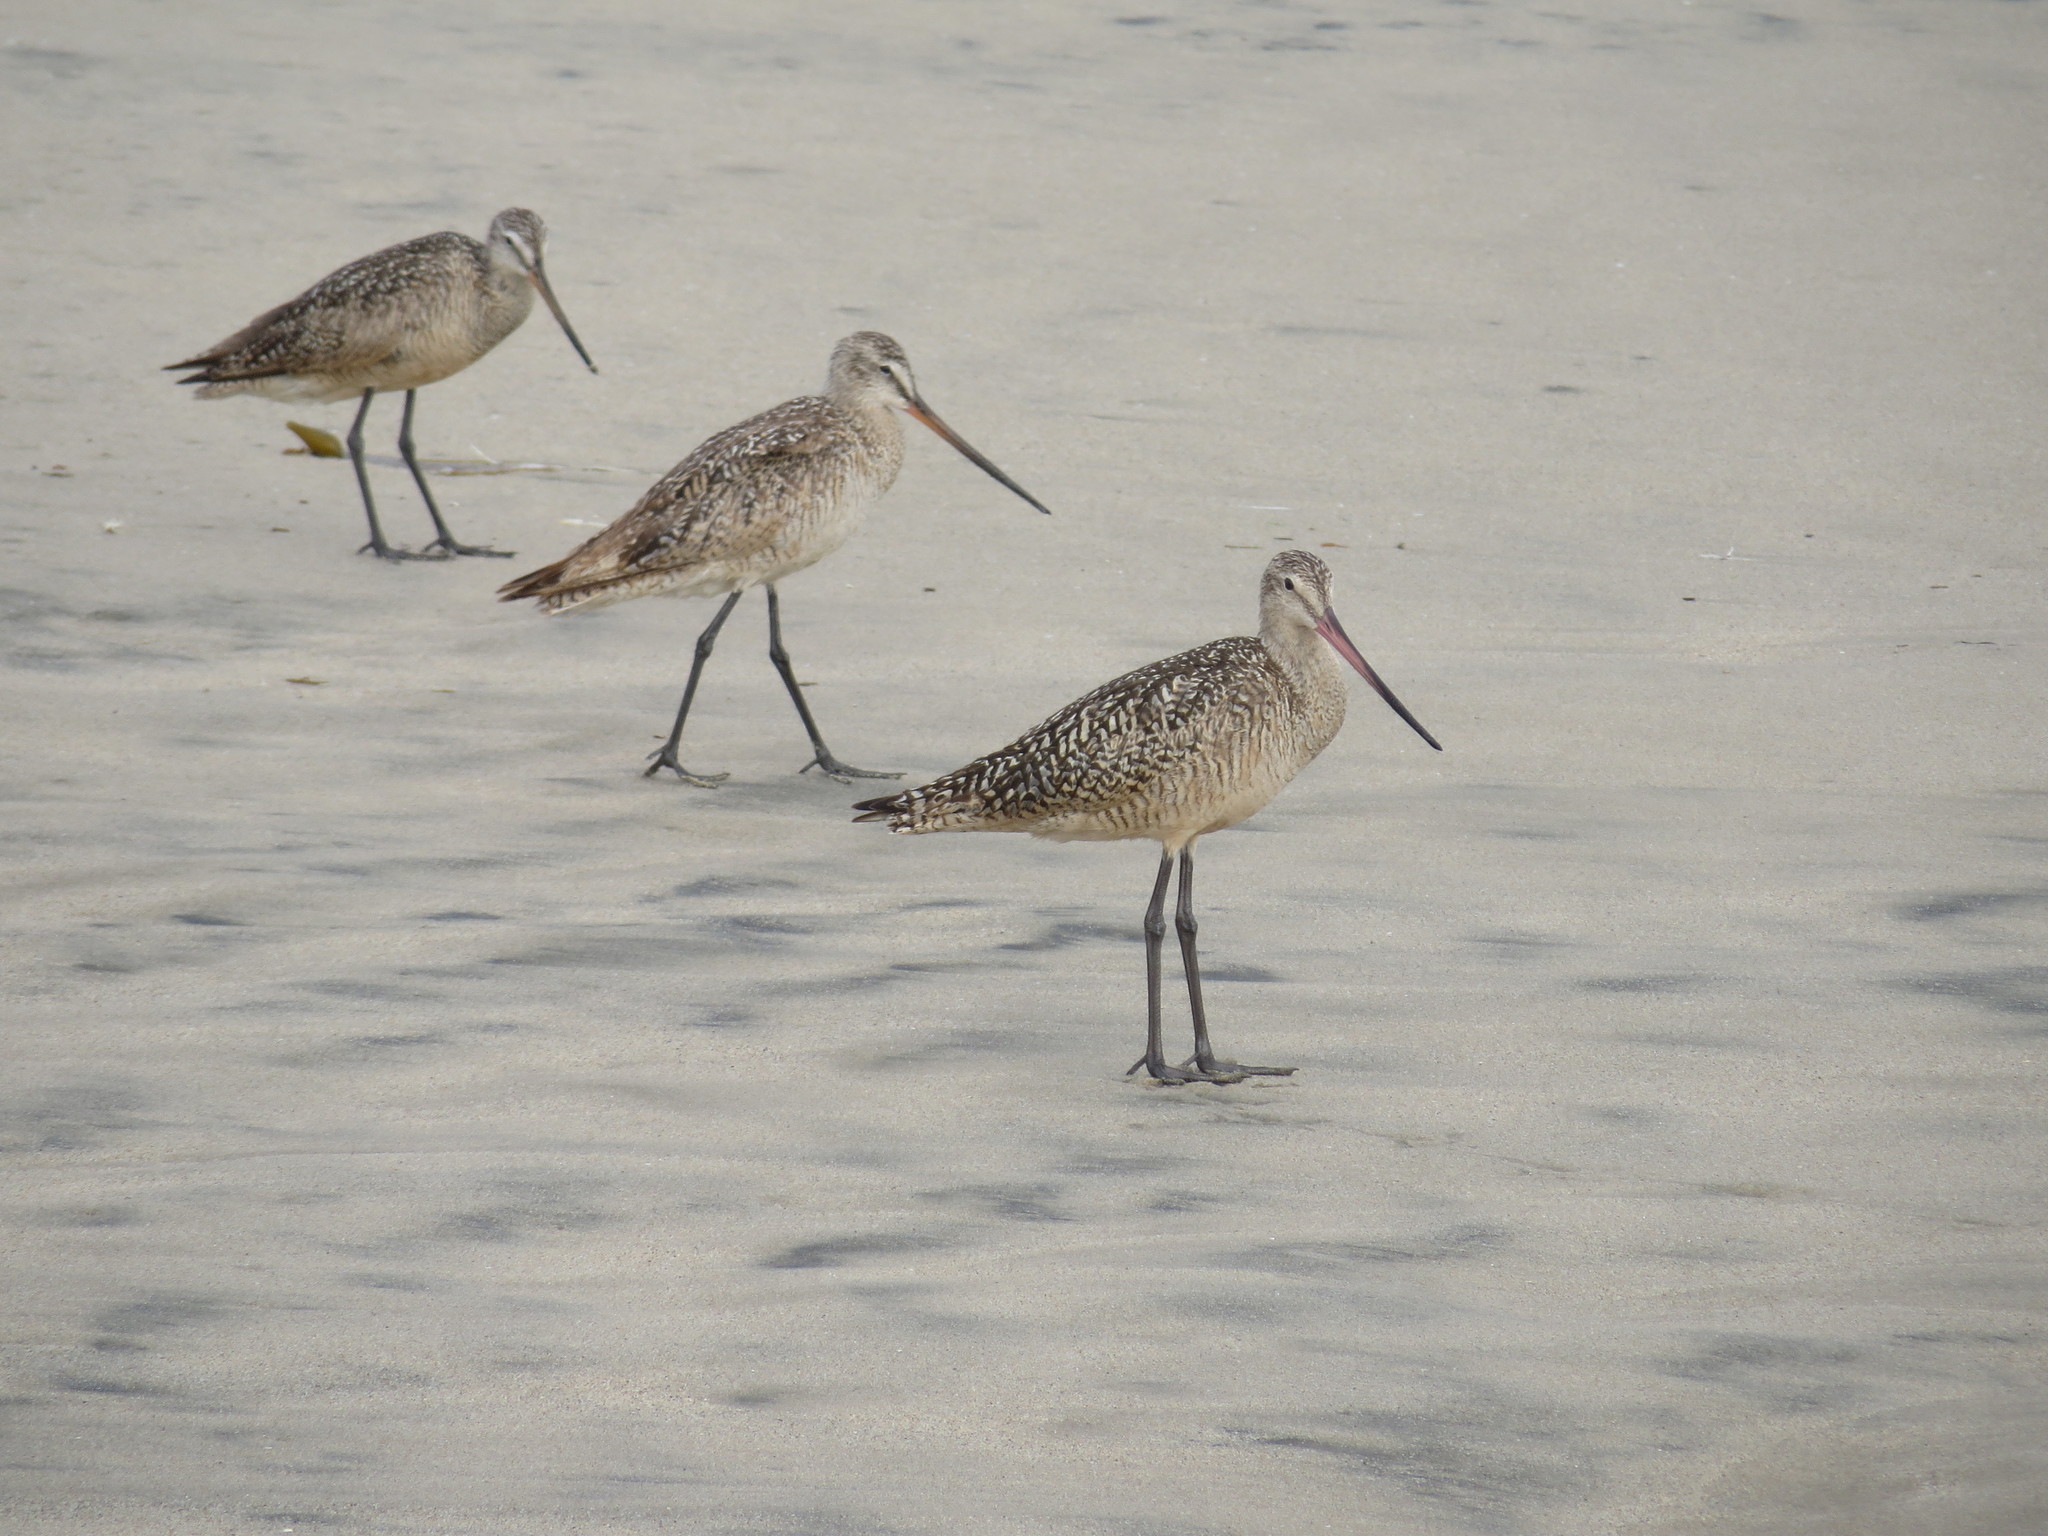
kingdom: Animalia
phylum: Chordata
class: Aves
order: Charadriiformes
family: Scolopacidae
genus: Limosa
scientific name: Limosa fedoa
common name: Marbled godwit
